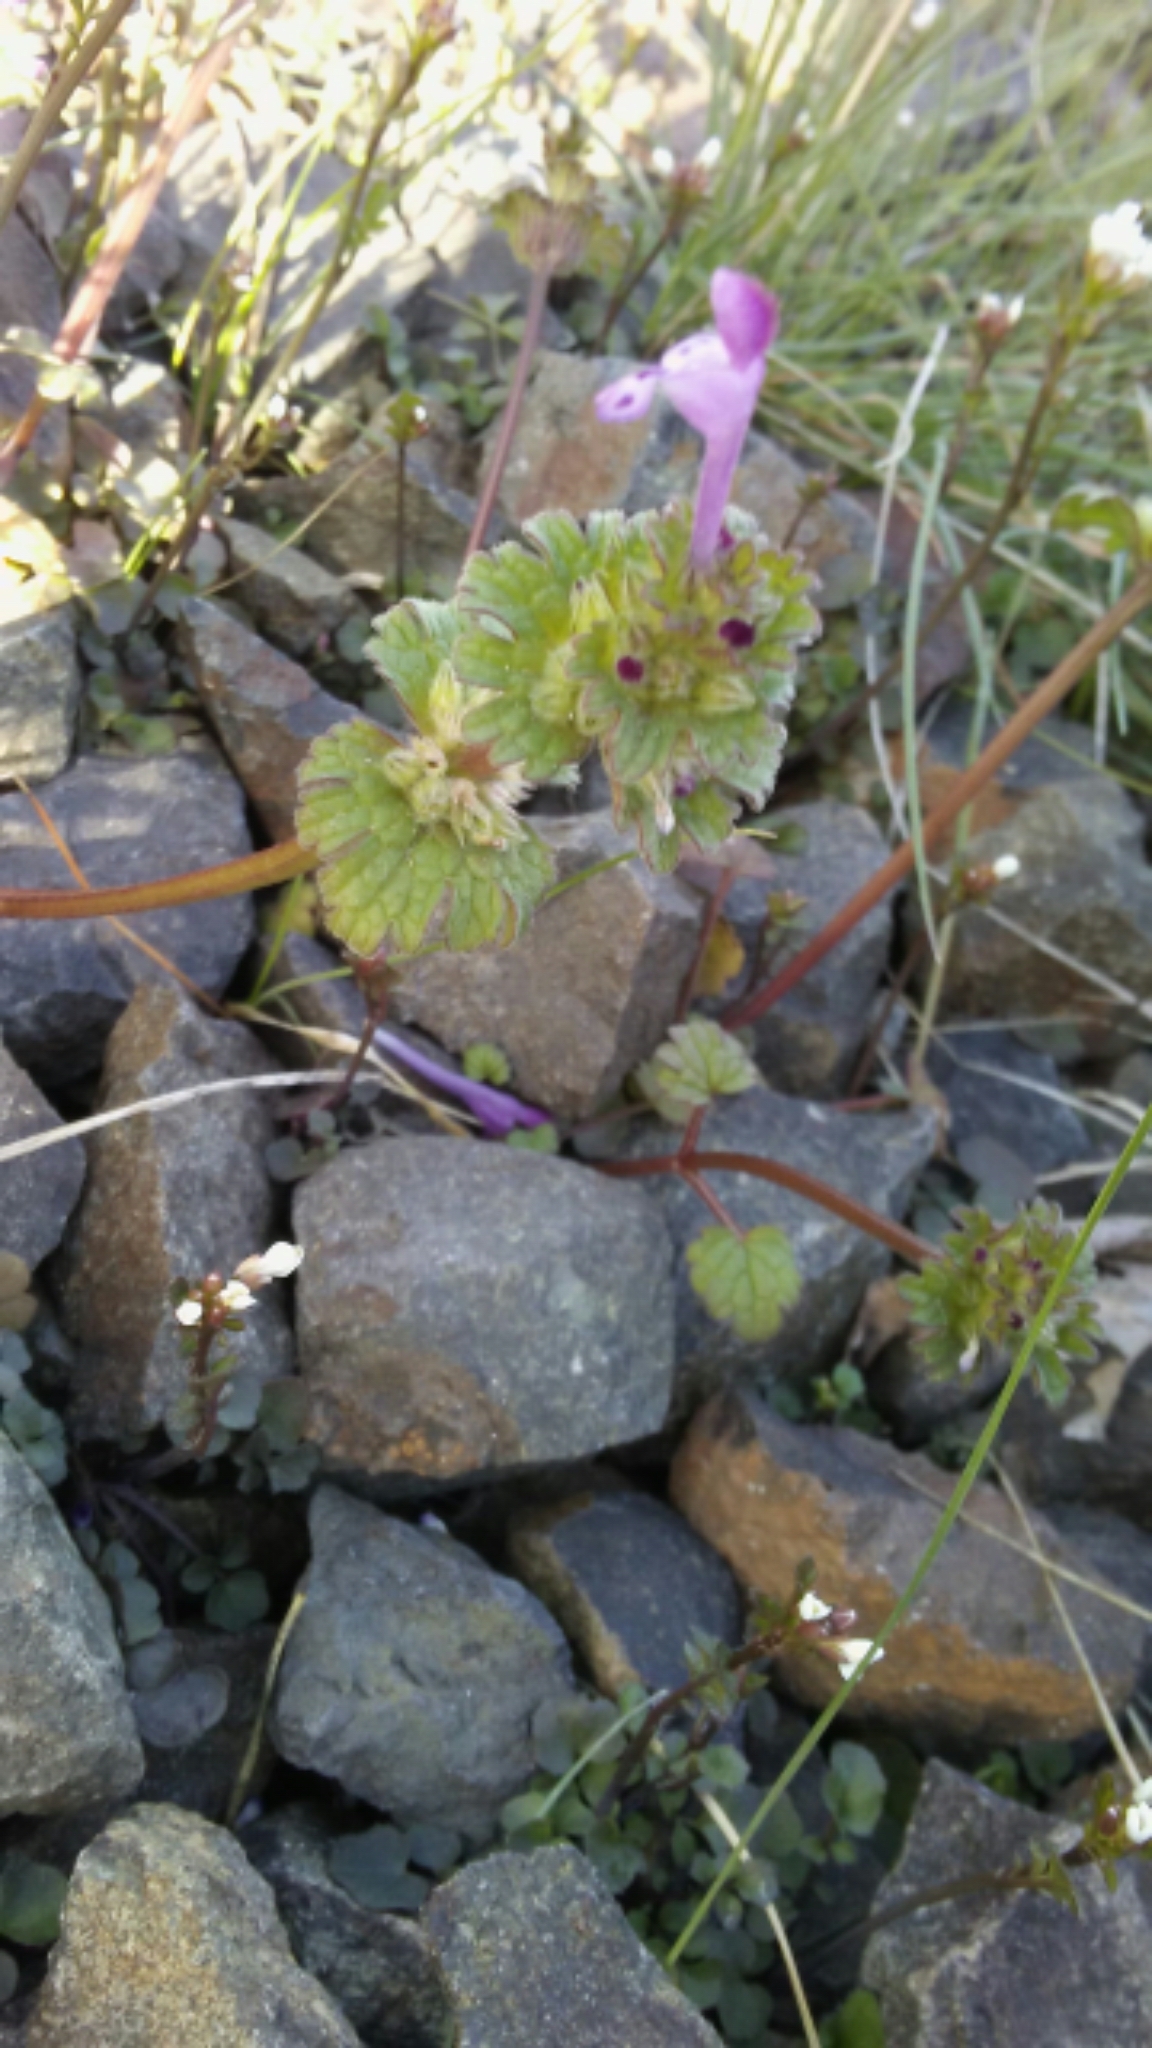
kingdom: Plantae
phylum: Tracheophyta
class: Magnoliopsida
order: Lamiales
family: Lamiaceae
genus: Lamium
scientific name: Lamium amplexicaule
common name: Henbit dead-nettle
